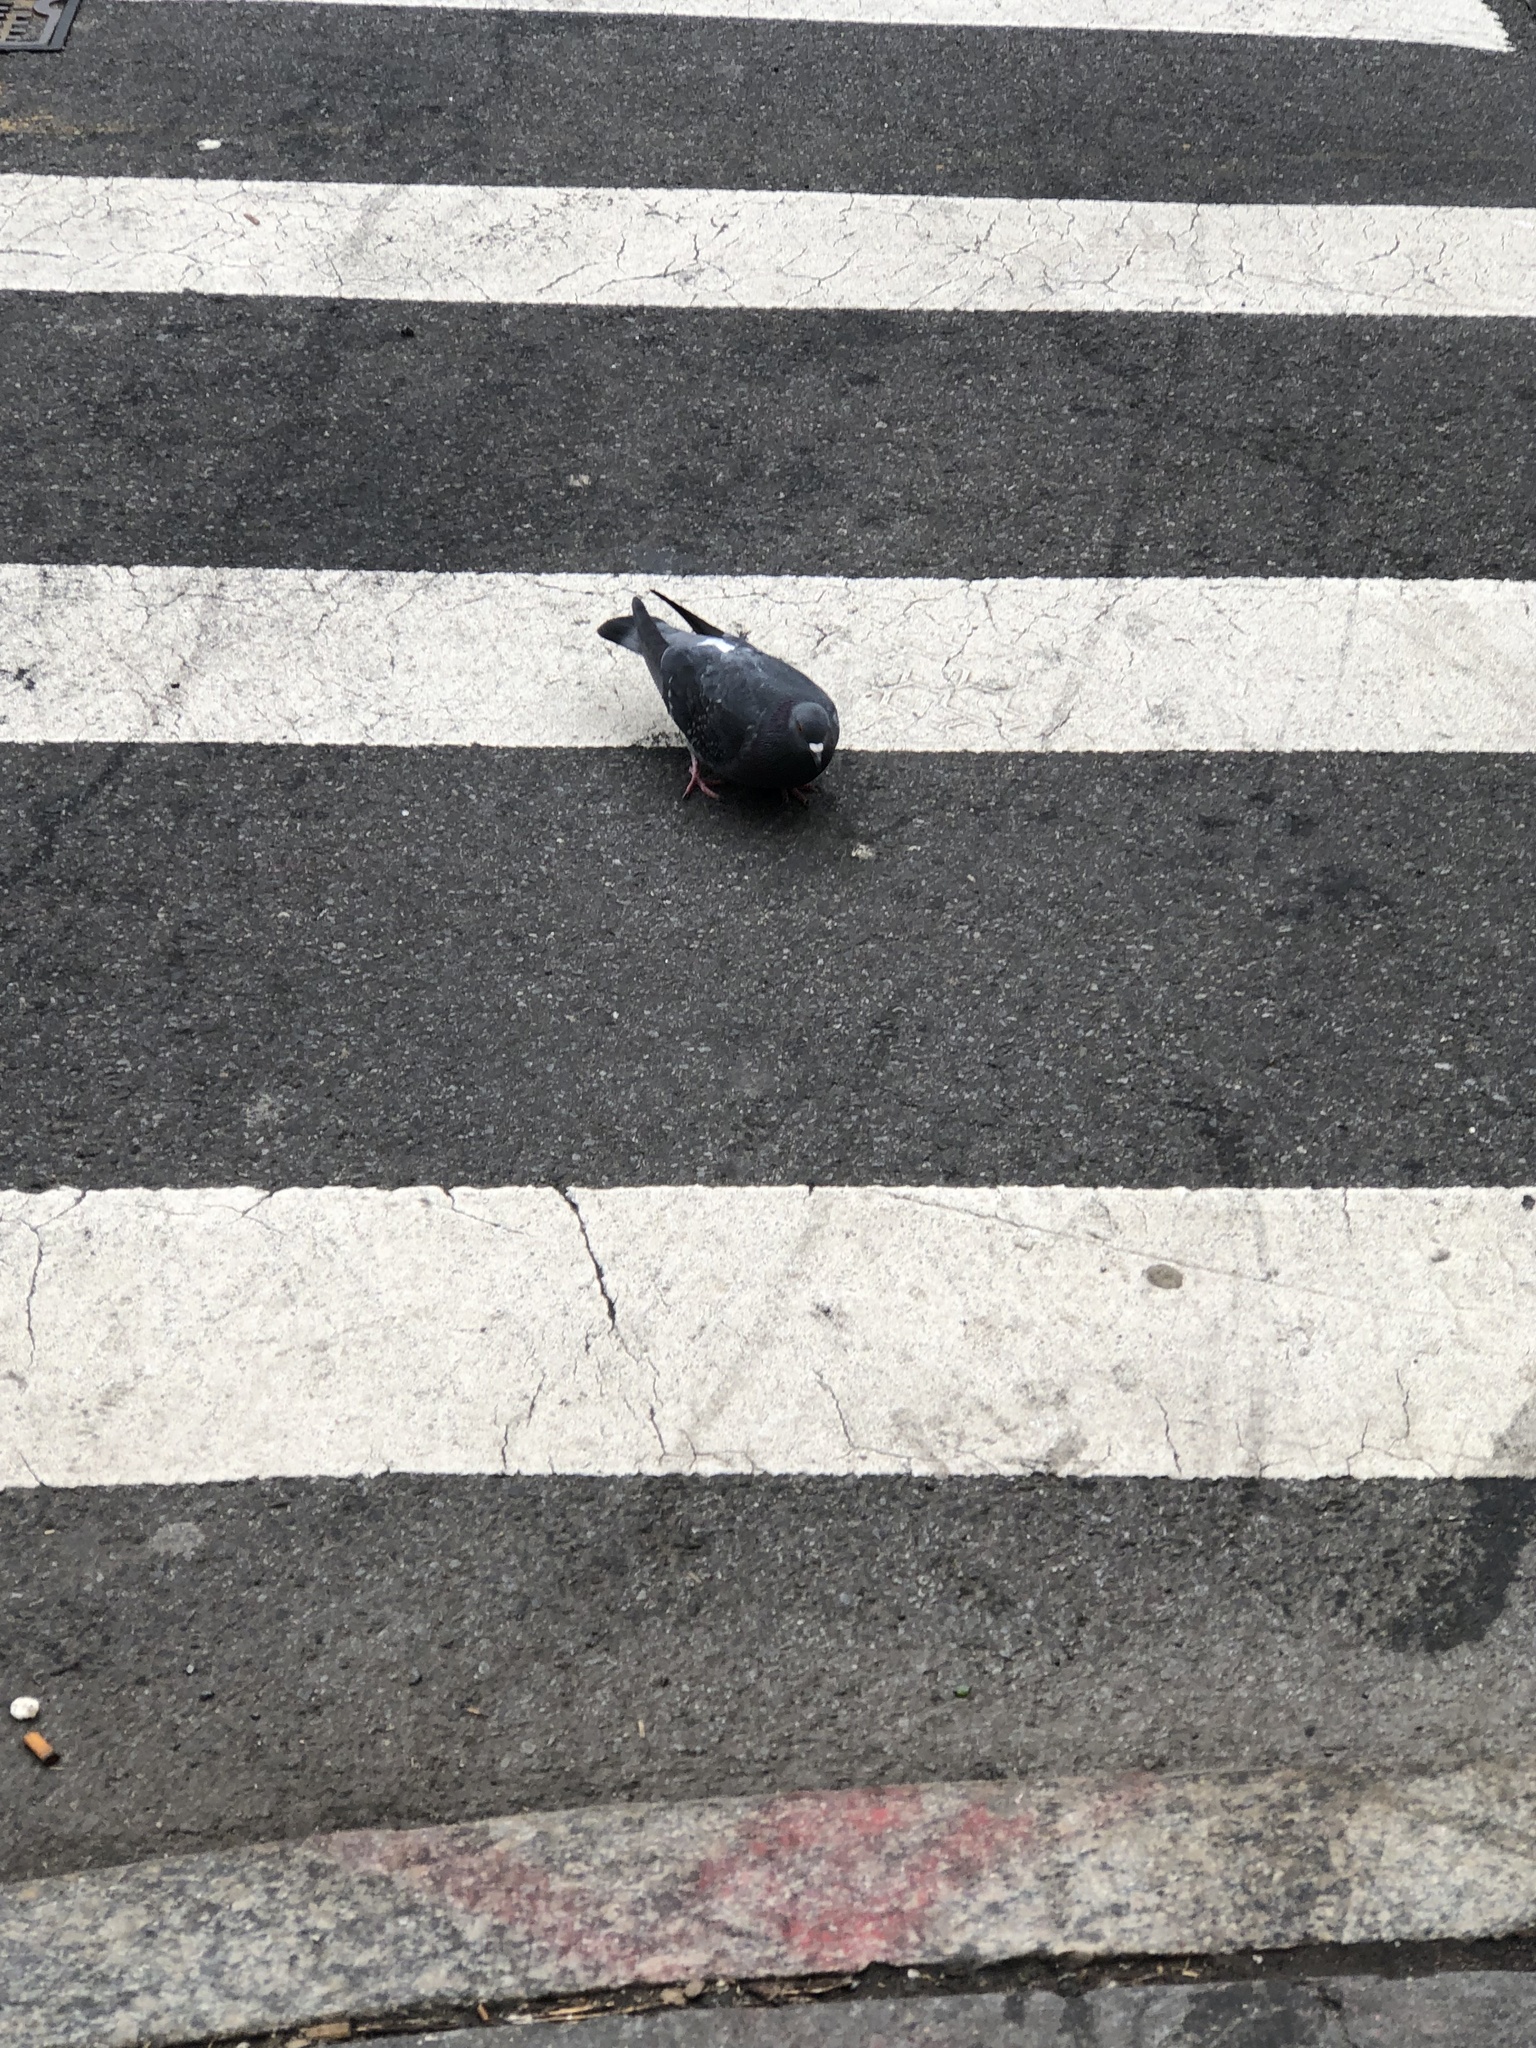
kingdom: Animalia
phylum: Chordata
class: Aves
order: Columbiformes
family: Columbidae
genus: Columba
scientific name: Columba livia
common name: Rock pigeon
